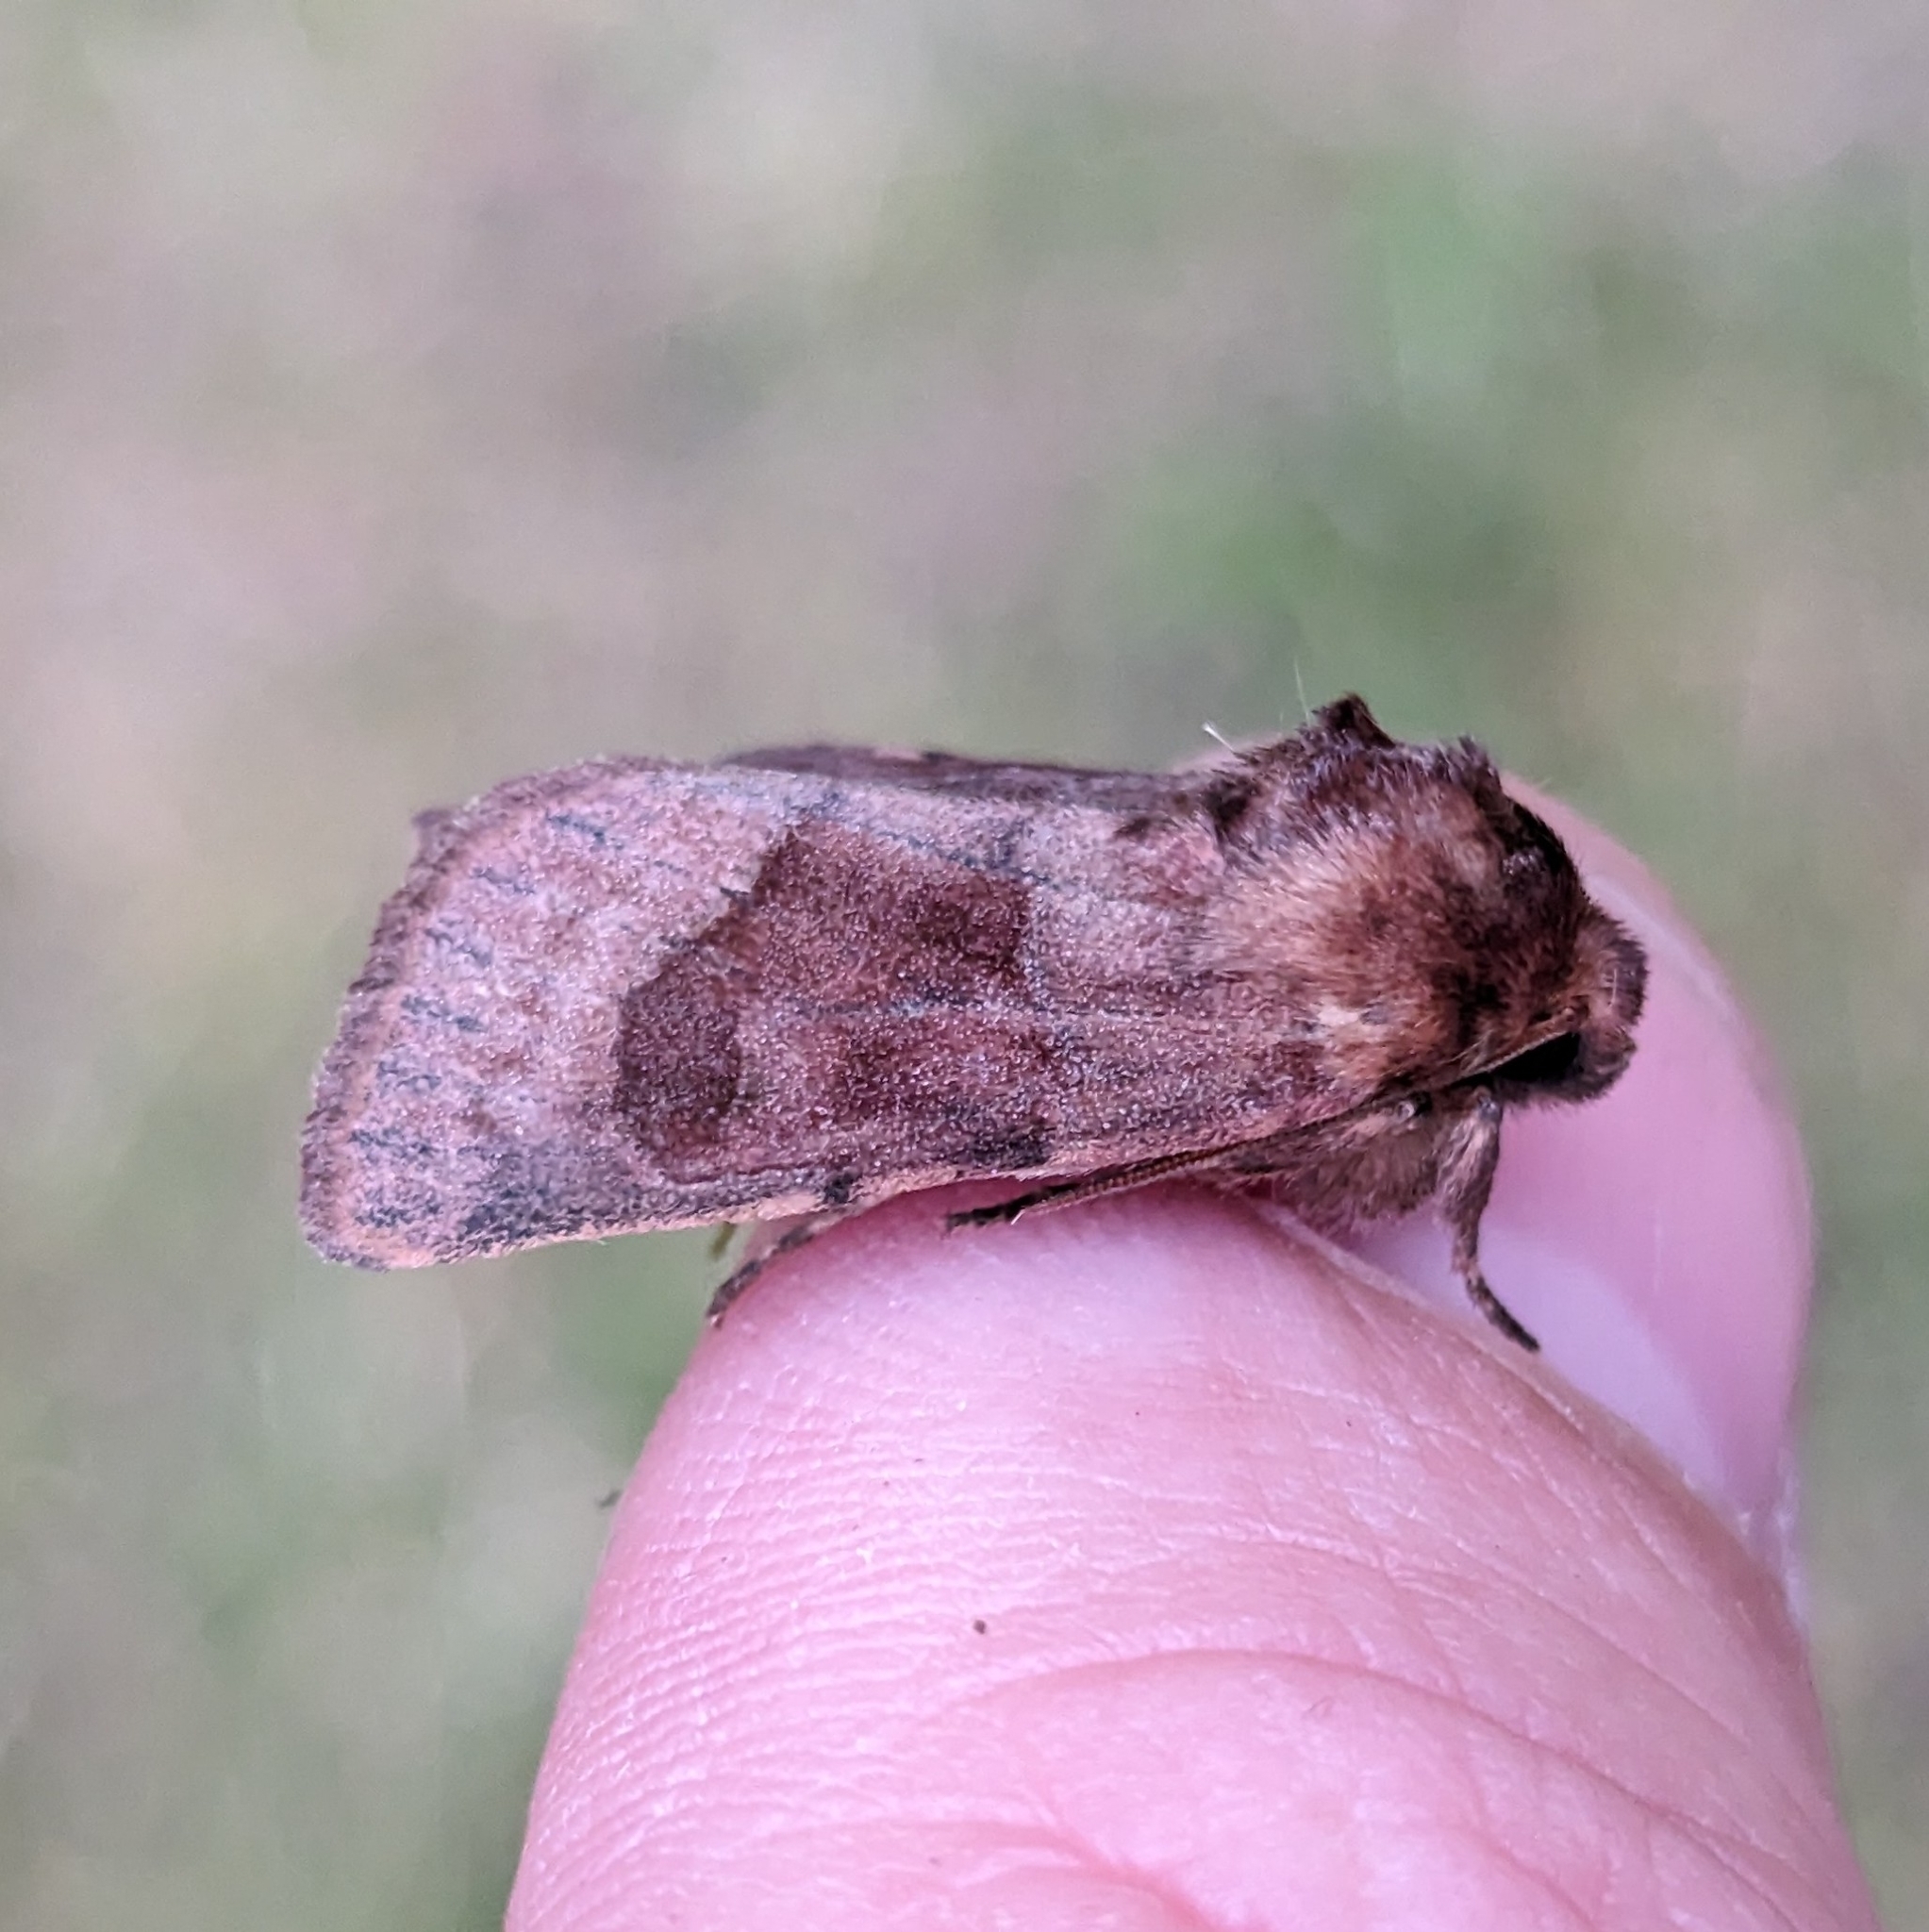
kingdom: Animalia
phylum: Arthropoda
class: Insecta
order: Lepidoptera
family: Noctuidae
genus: Nephelodes
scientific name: Nephelodes minians
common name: Bronzed cutworm
